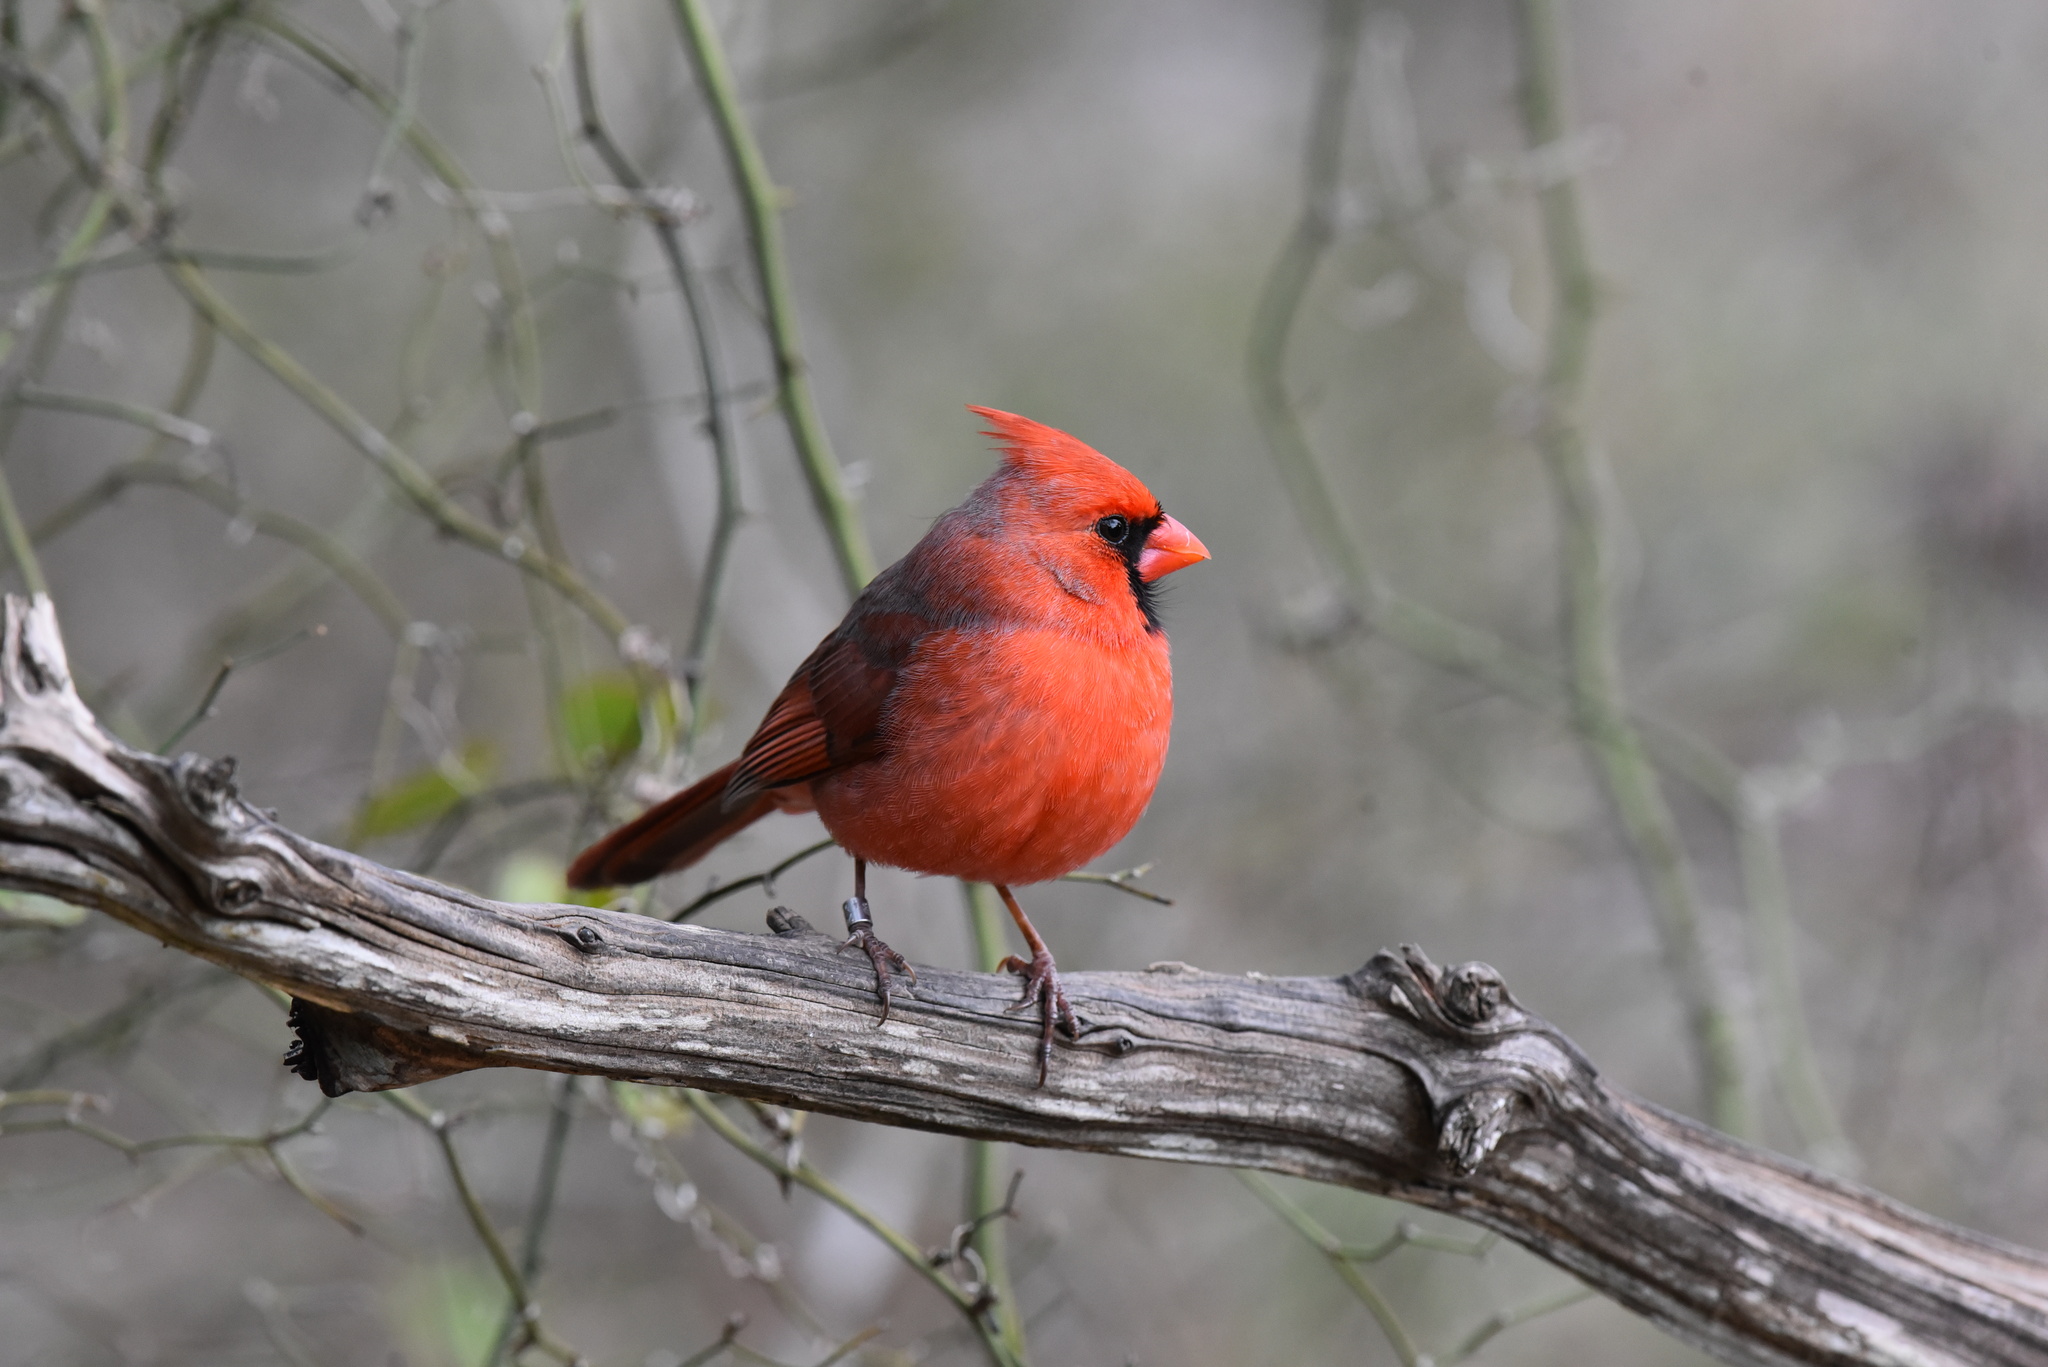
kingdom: Animalia
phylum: Chordata
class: Aves
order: Passeriformes
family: Cardinalidae
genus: Cardinalis
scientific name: Cardinalis cardinalis
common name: Northern cardinal
